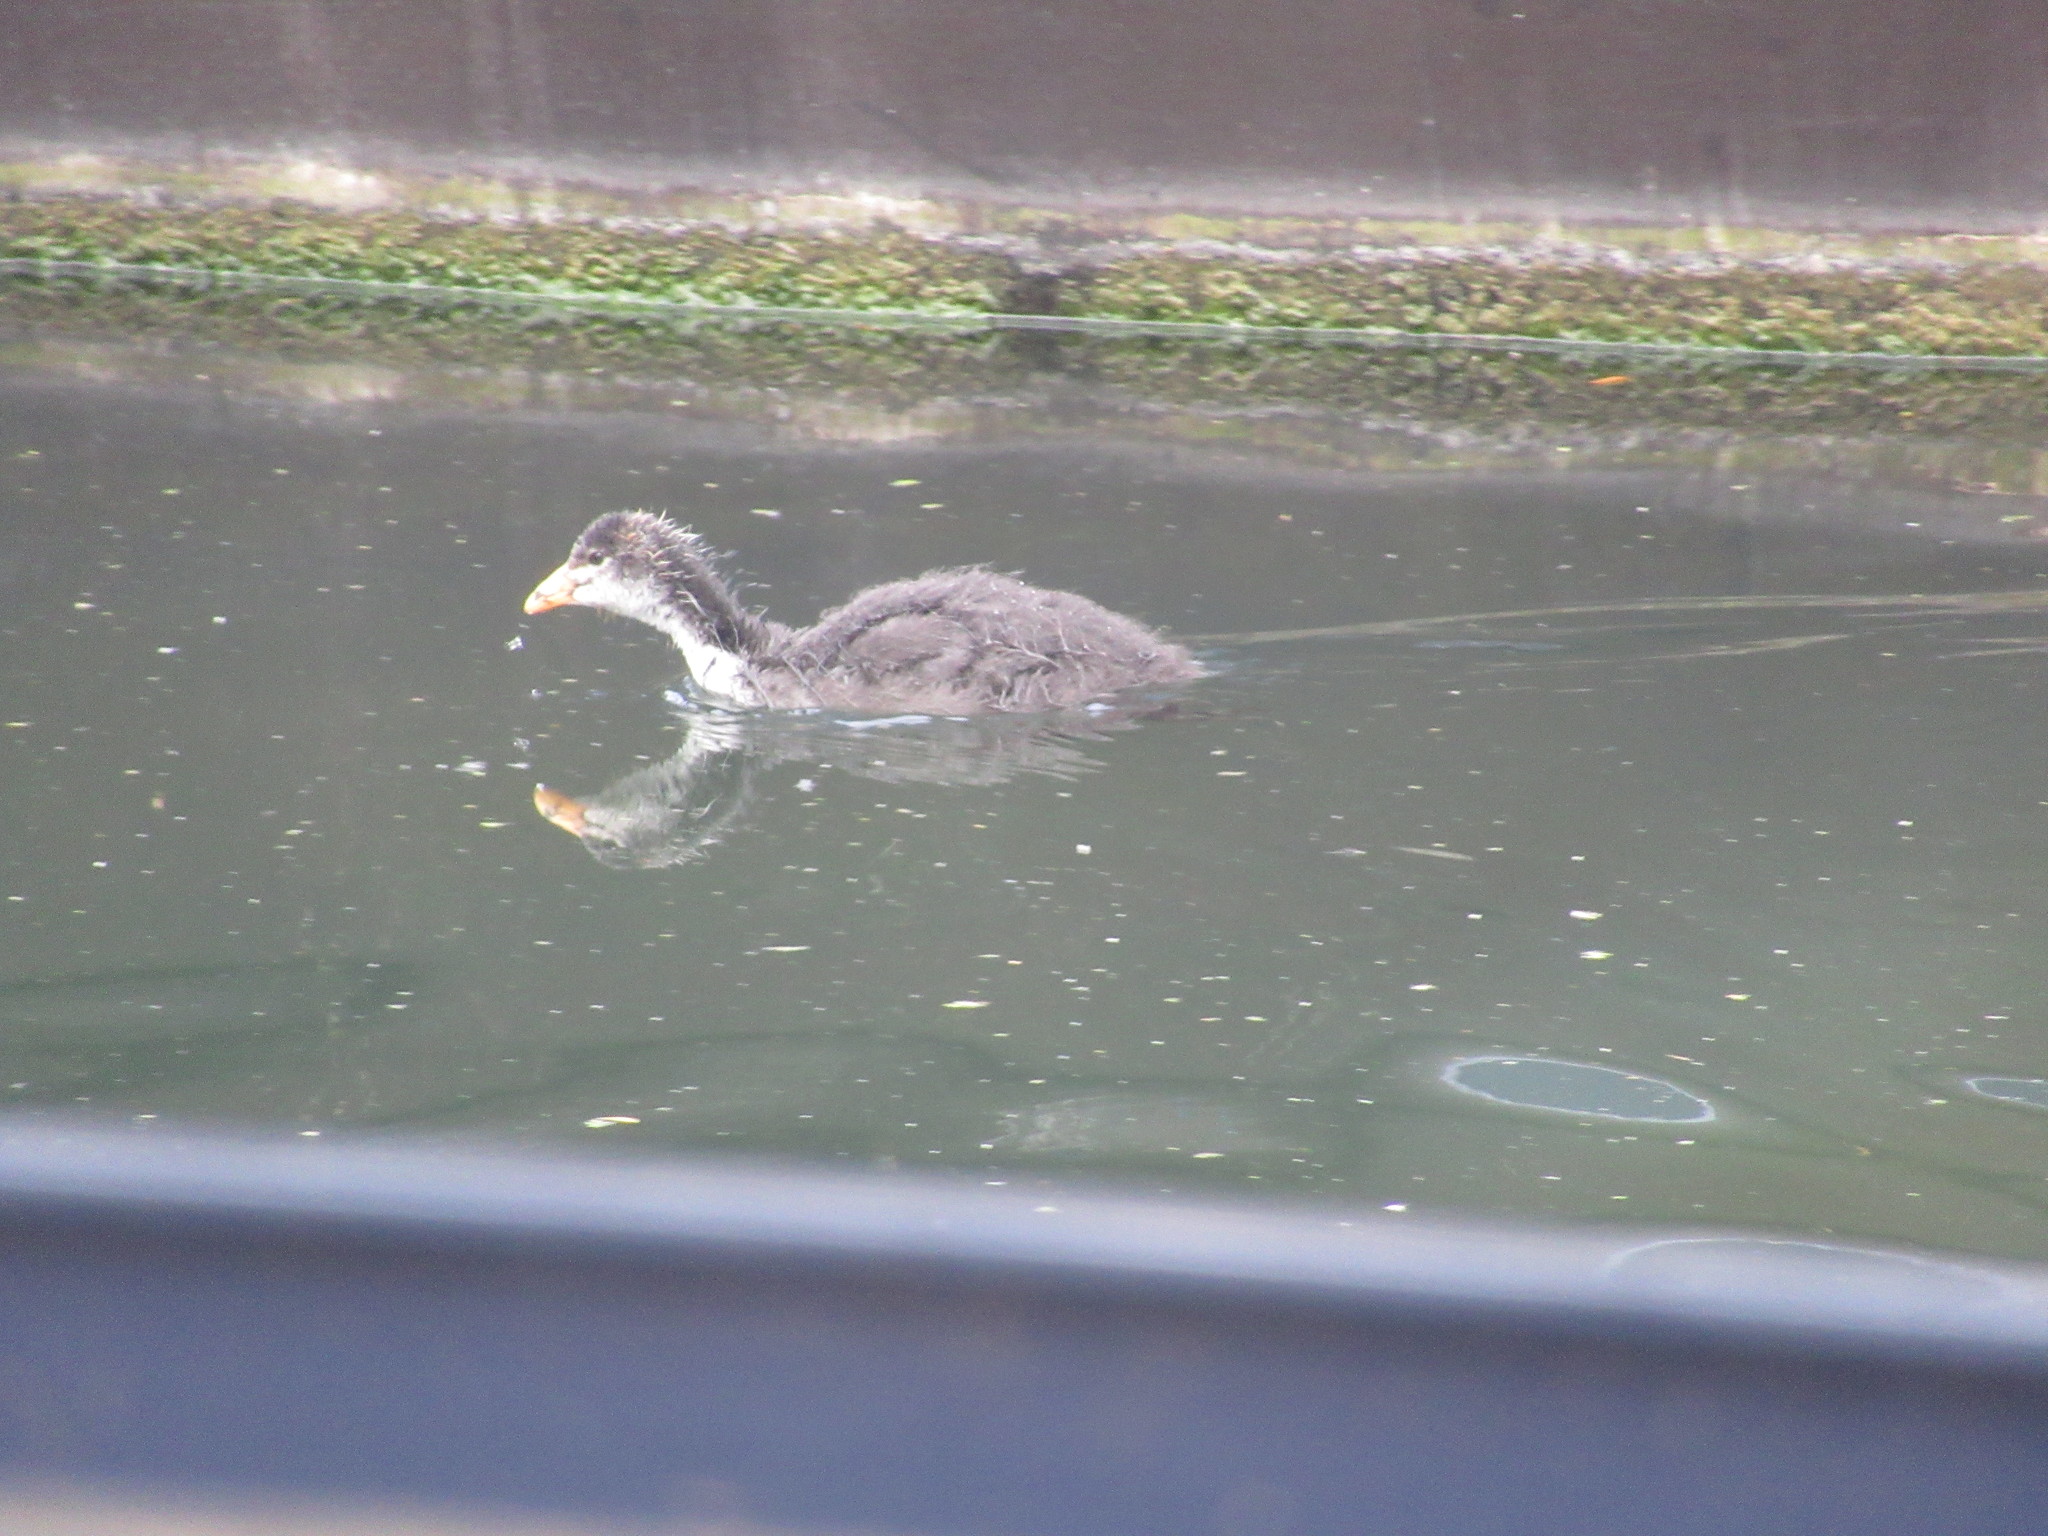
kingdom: Animalia
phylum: Chordata
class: Aves
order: Gruiformes
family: Rallidae
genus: Fulica
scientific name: Fulica atra
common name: Eurasian coot
